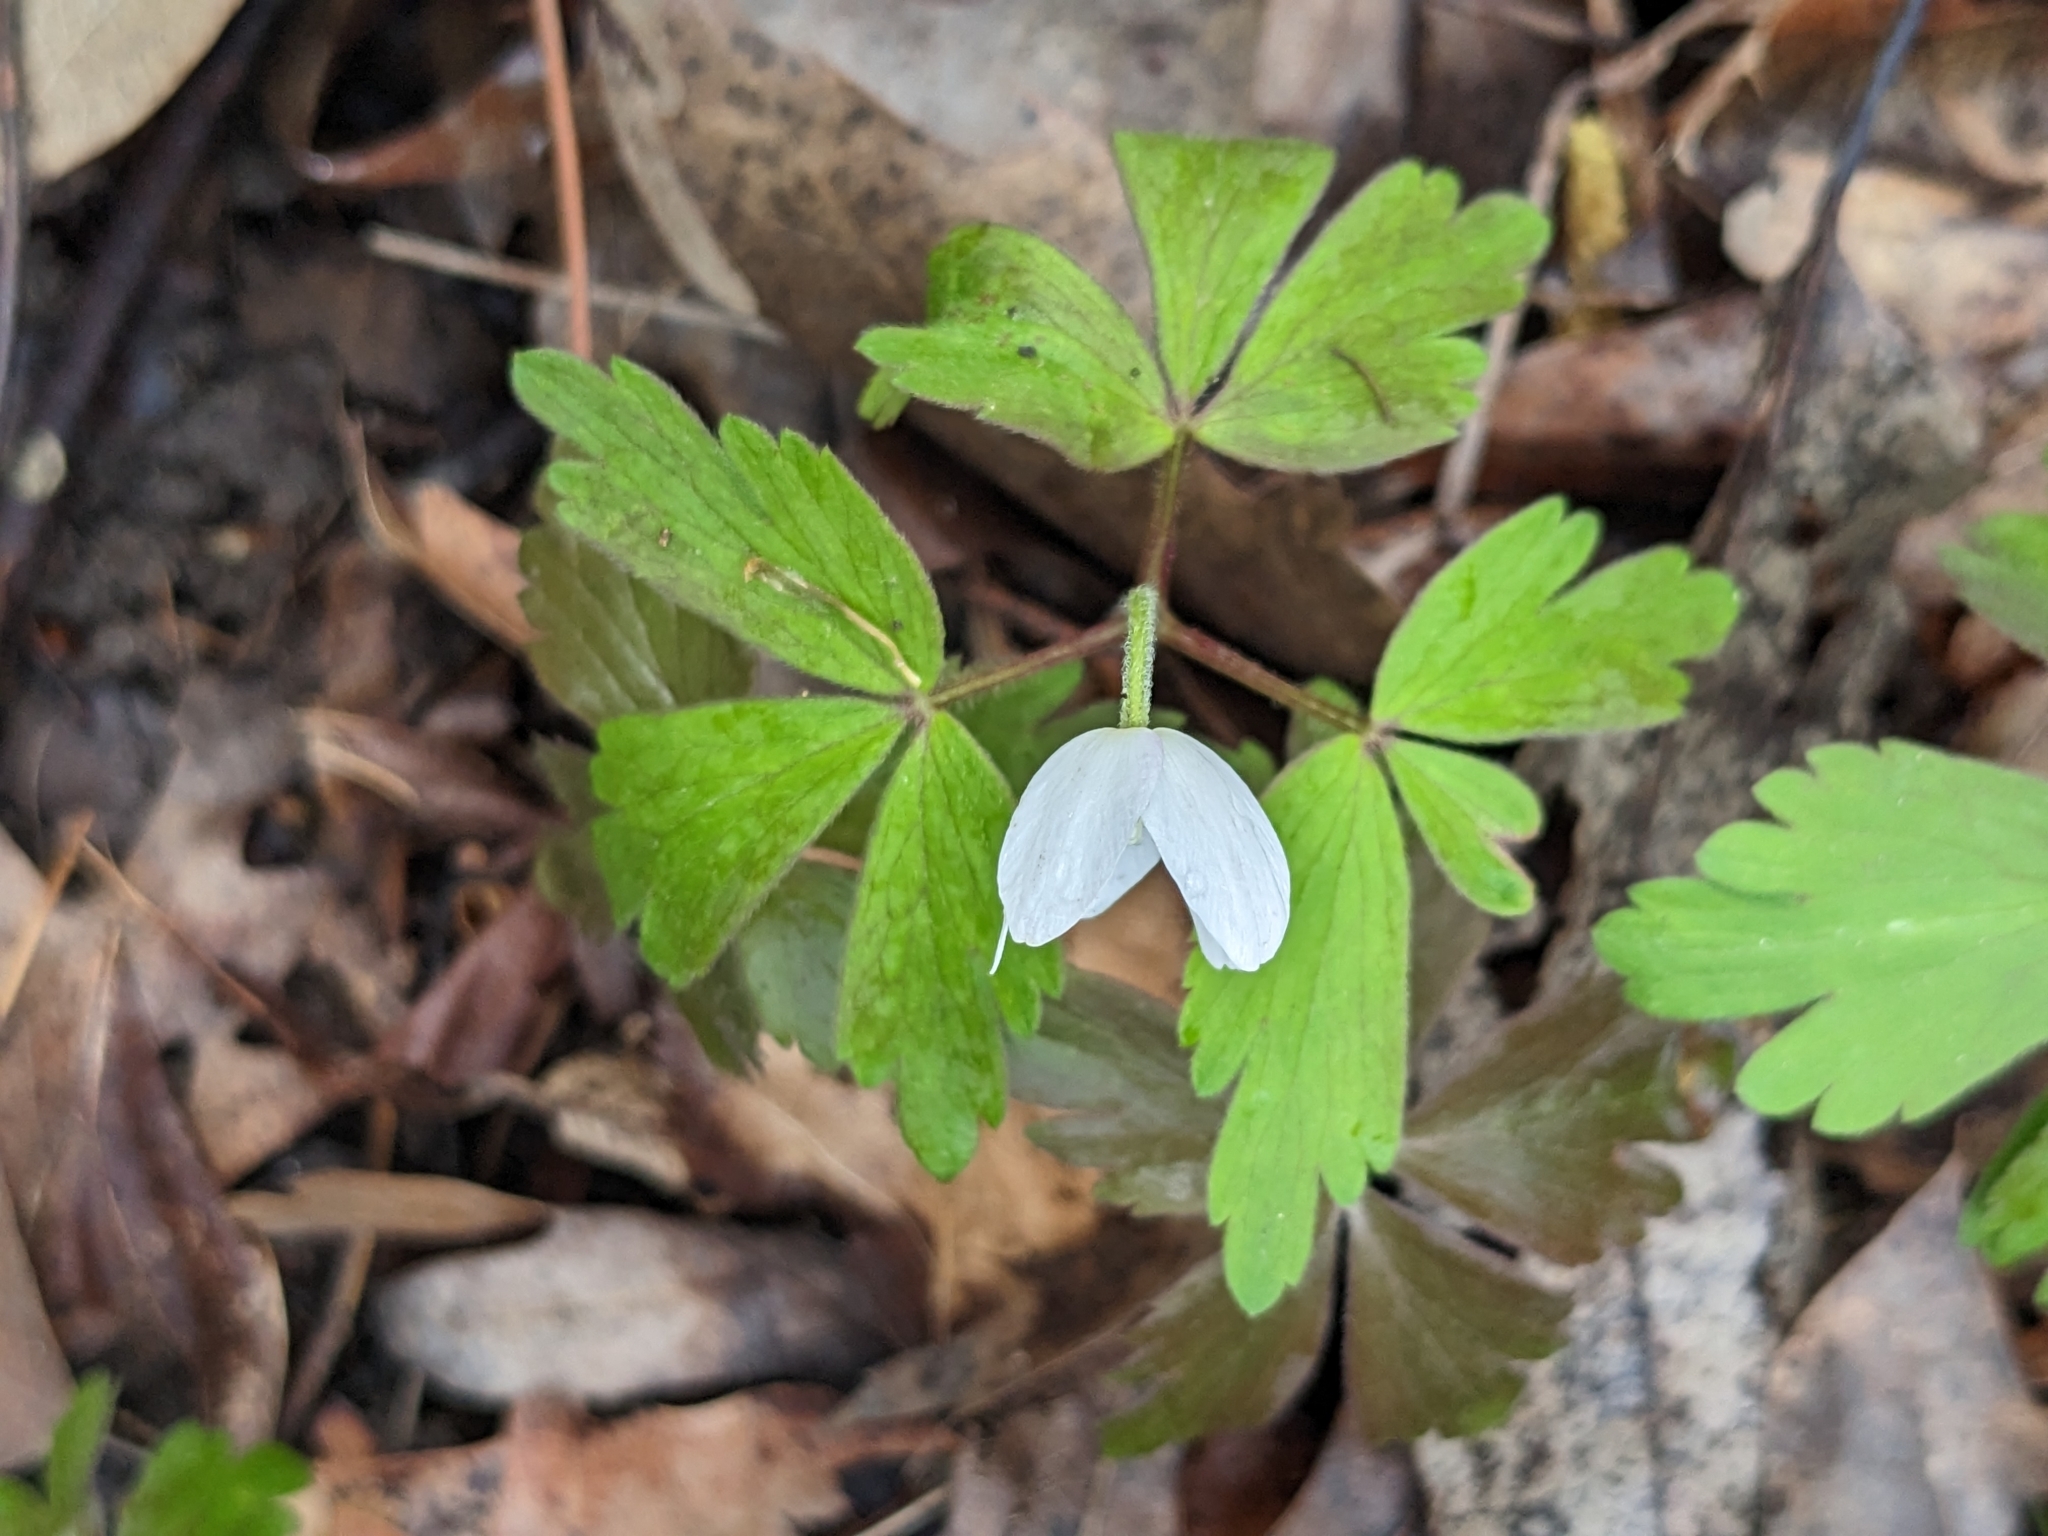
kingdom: Plantae
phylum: Tracheophyta
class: Magnoliopsida
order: Ranunculales
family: Ranunculaceae
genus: Anemone
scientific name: Anemone quinquefolia
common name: Wood anemone
